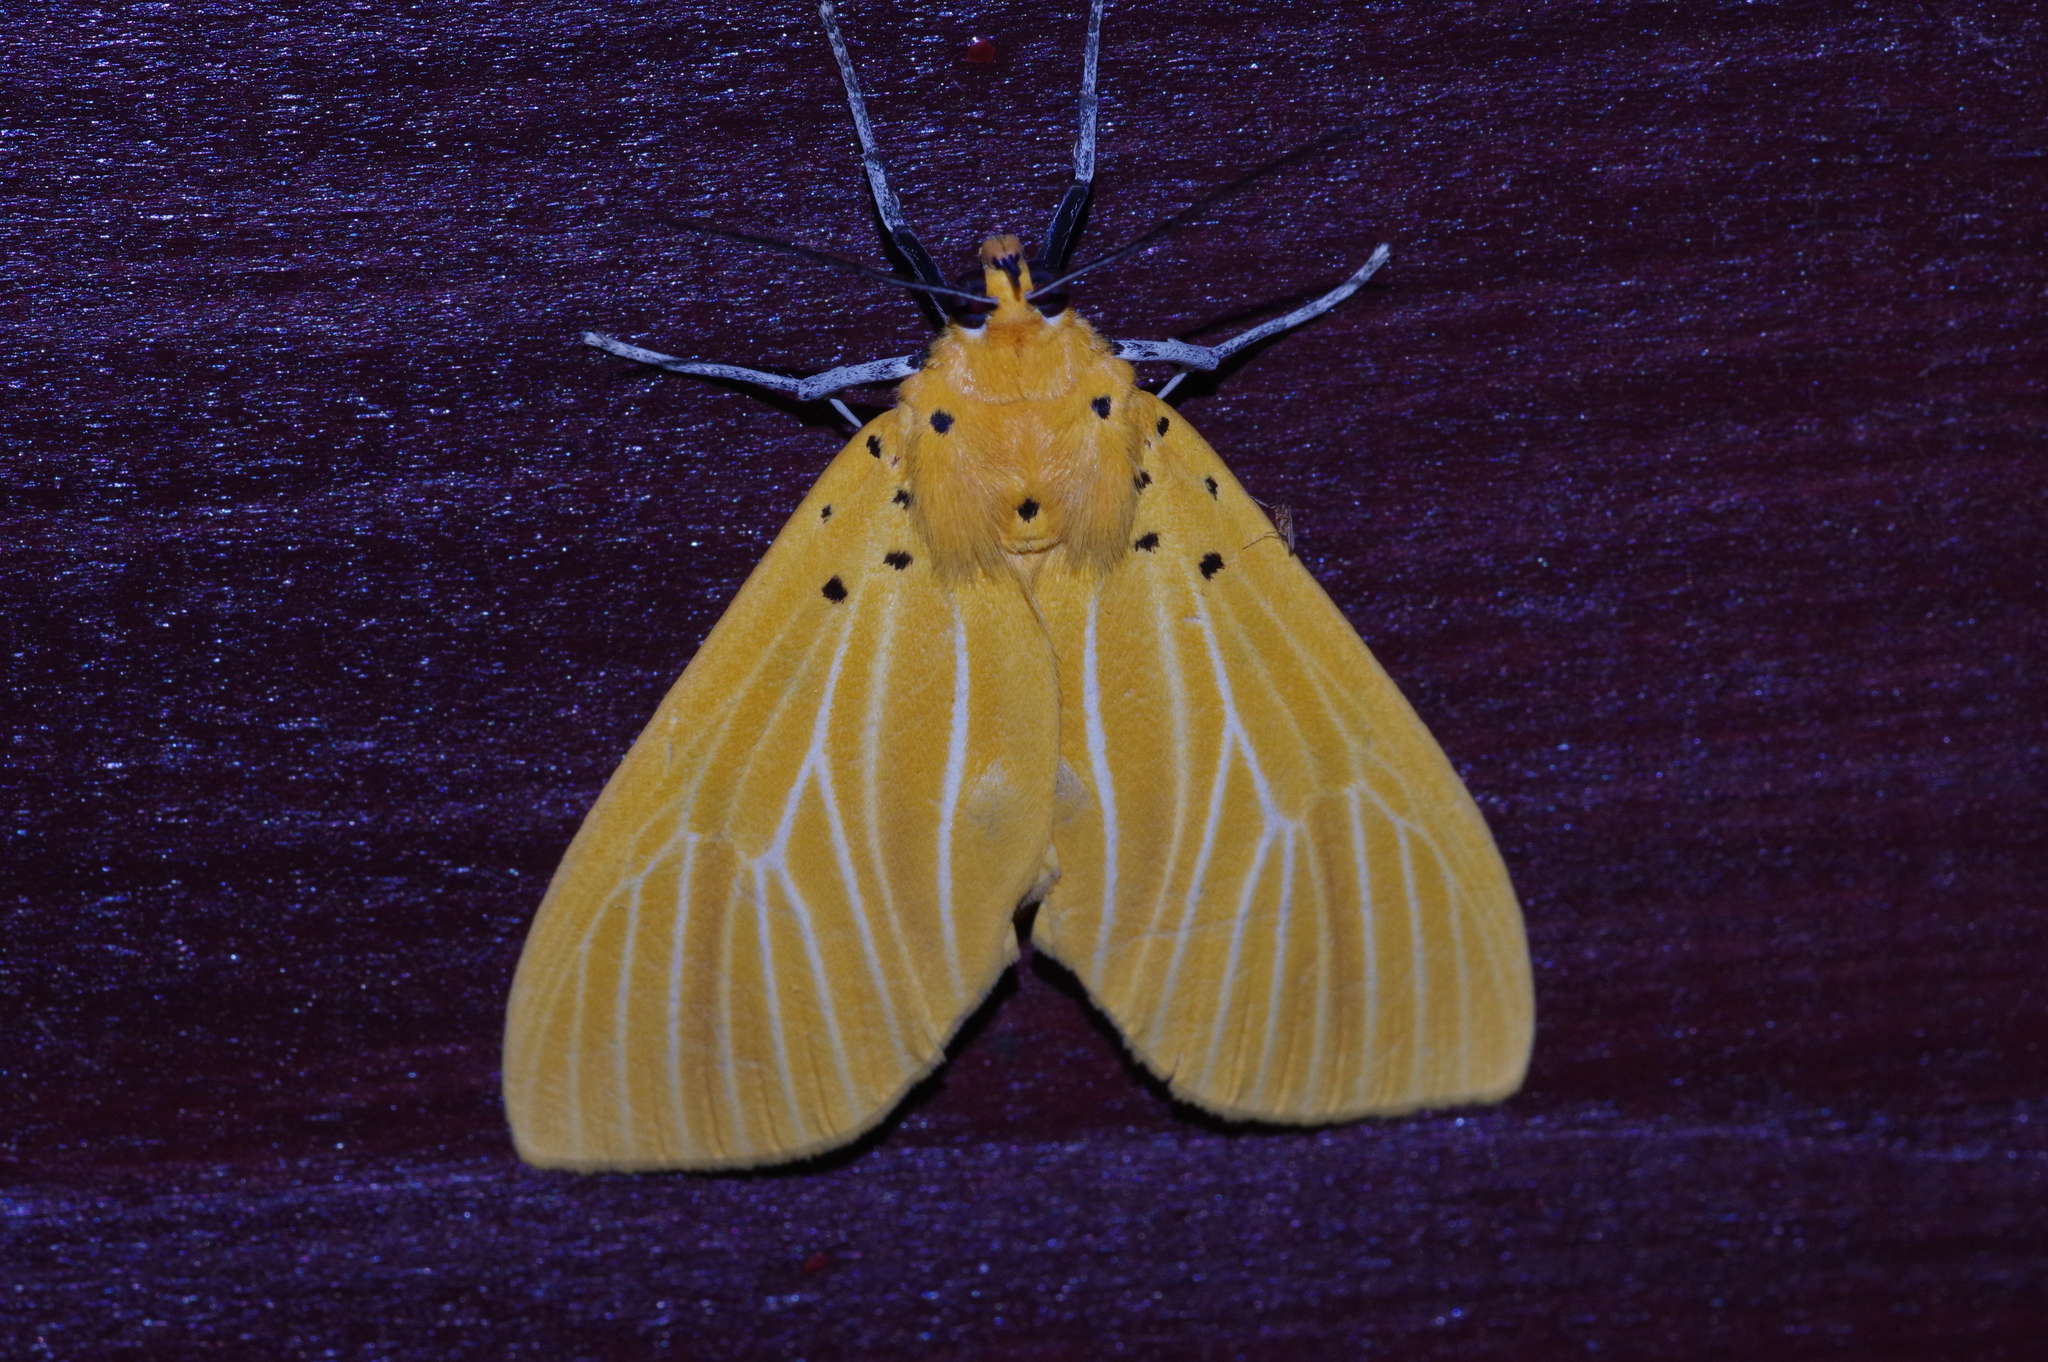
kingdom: Animalia
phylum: Arthropoda
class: Insecta
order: Lepidoptera
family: Erebidae
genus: Asota
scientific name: Asota egens
